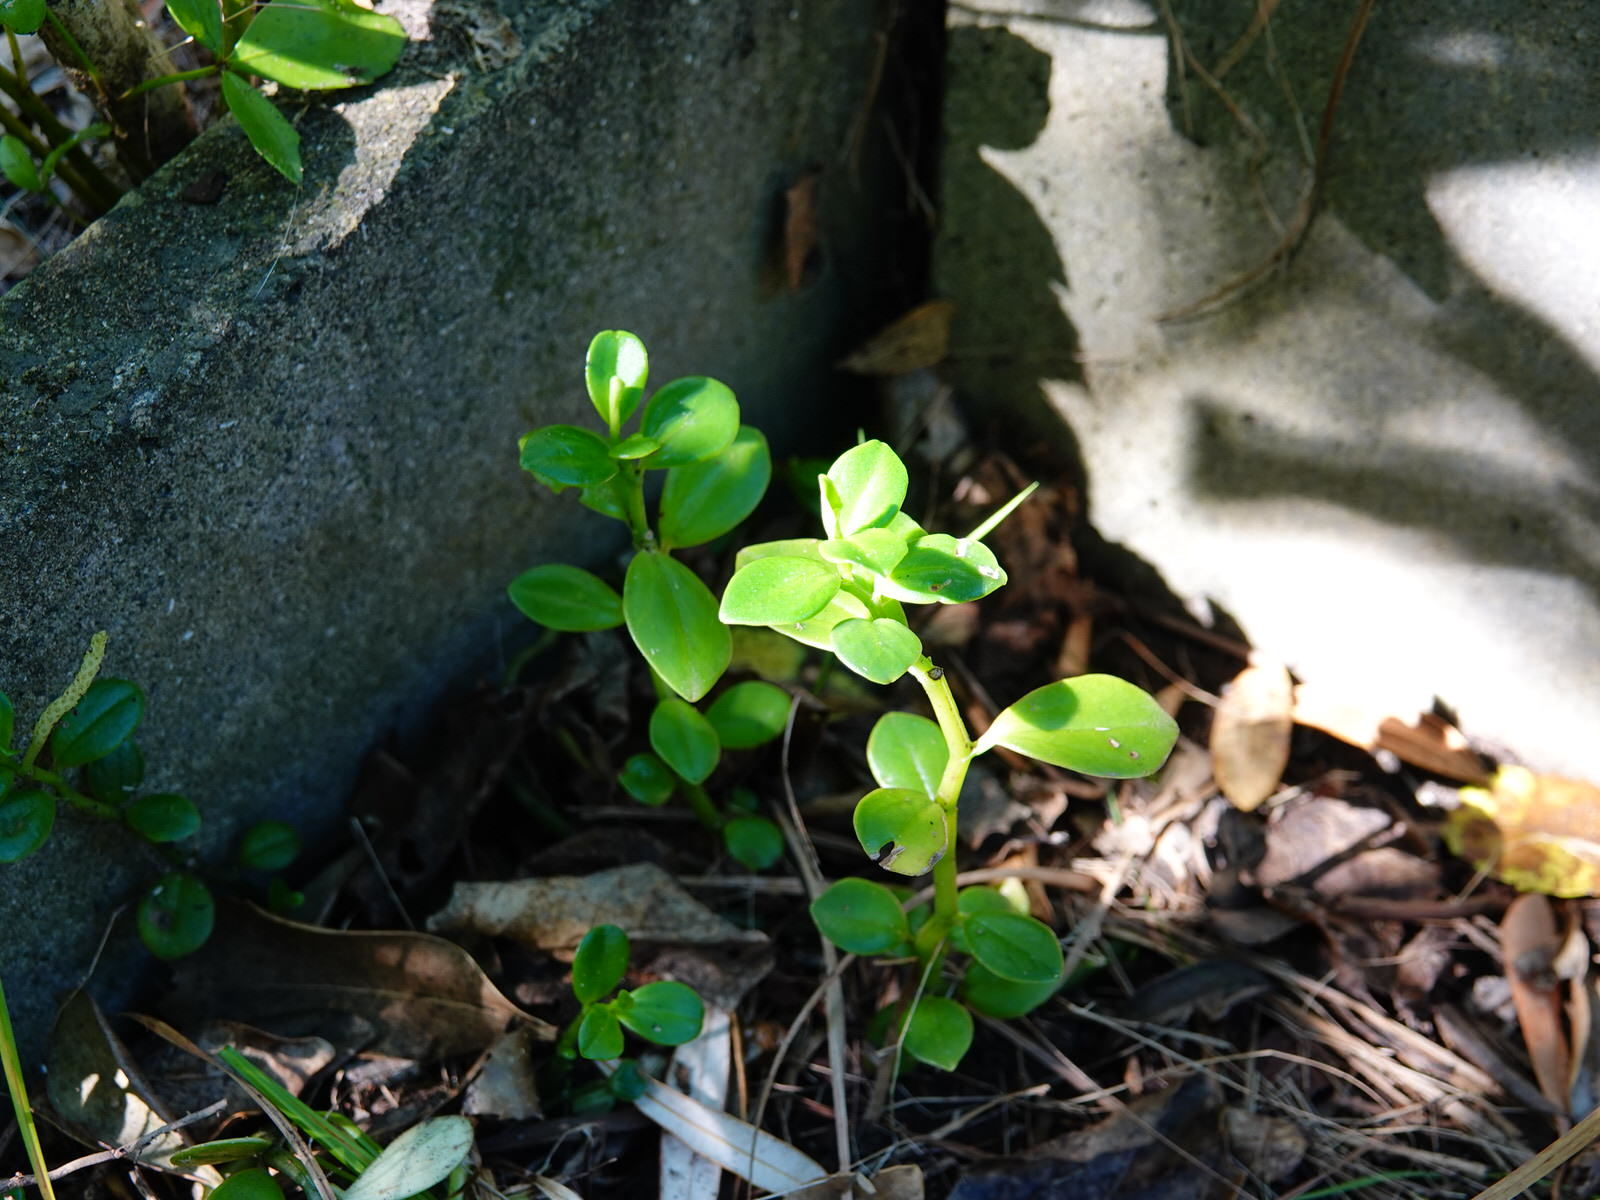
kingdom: Plantae
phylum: Tracheophyta
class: Magnoliopsida
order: Piperales
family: Piperaceae
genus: Peperomia
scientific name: Peperomia urvilleana
